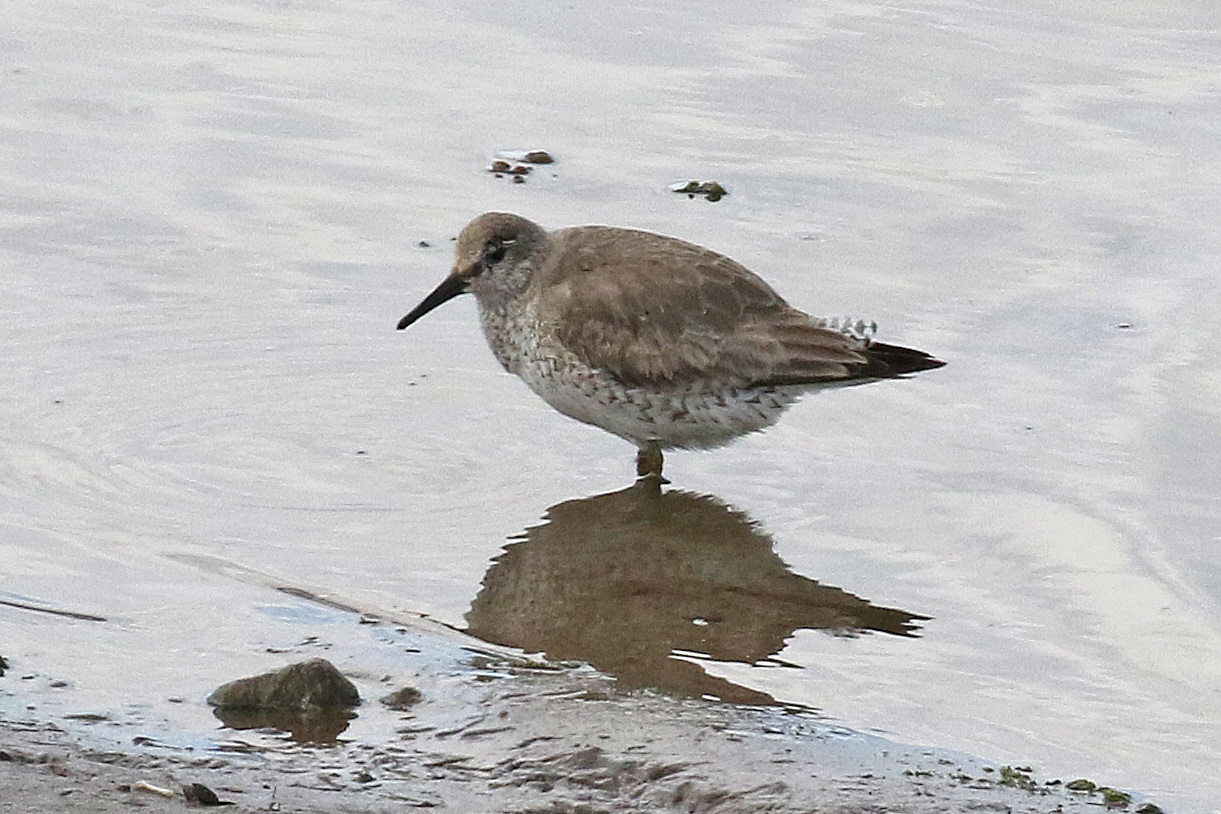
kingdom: Animalia
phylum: Chordata
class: Aves
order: Charadriiformes
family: Scolopacidae
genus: Calidris
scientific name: Calidris canutus
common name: Red knot
